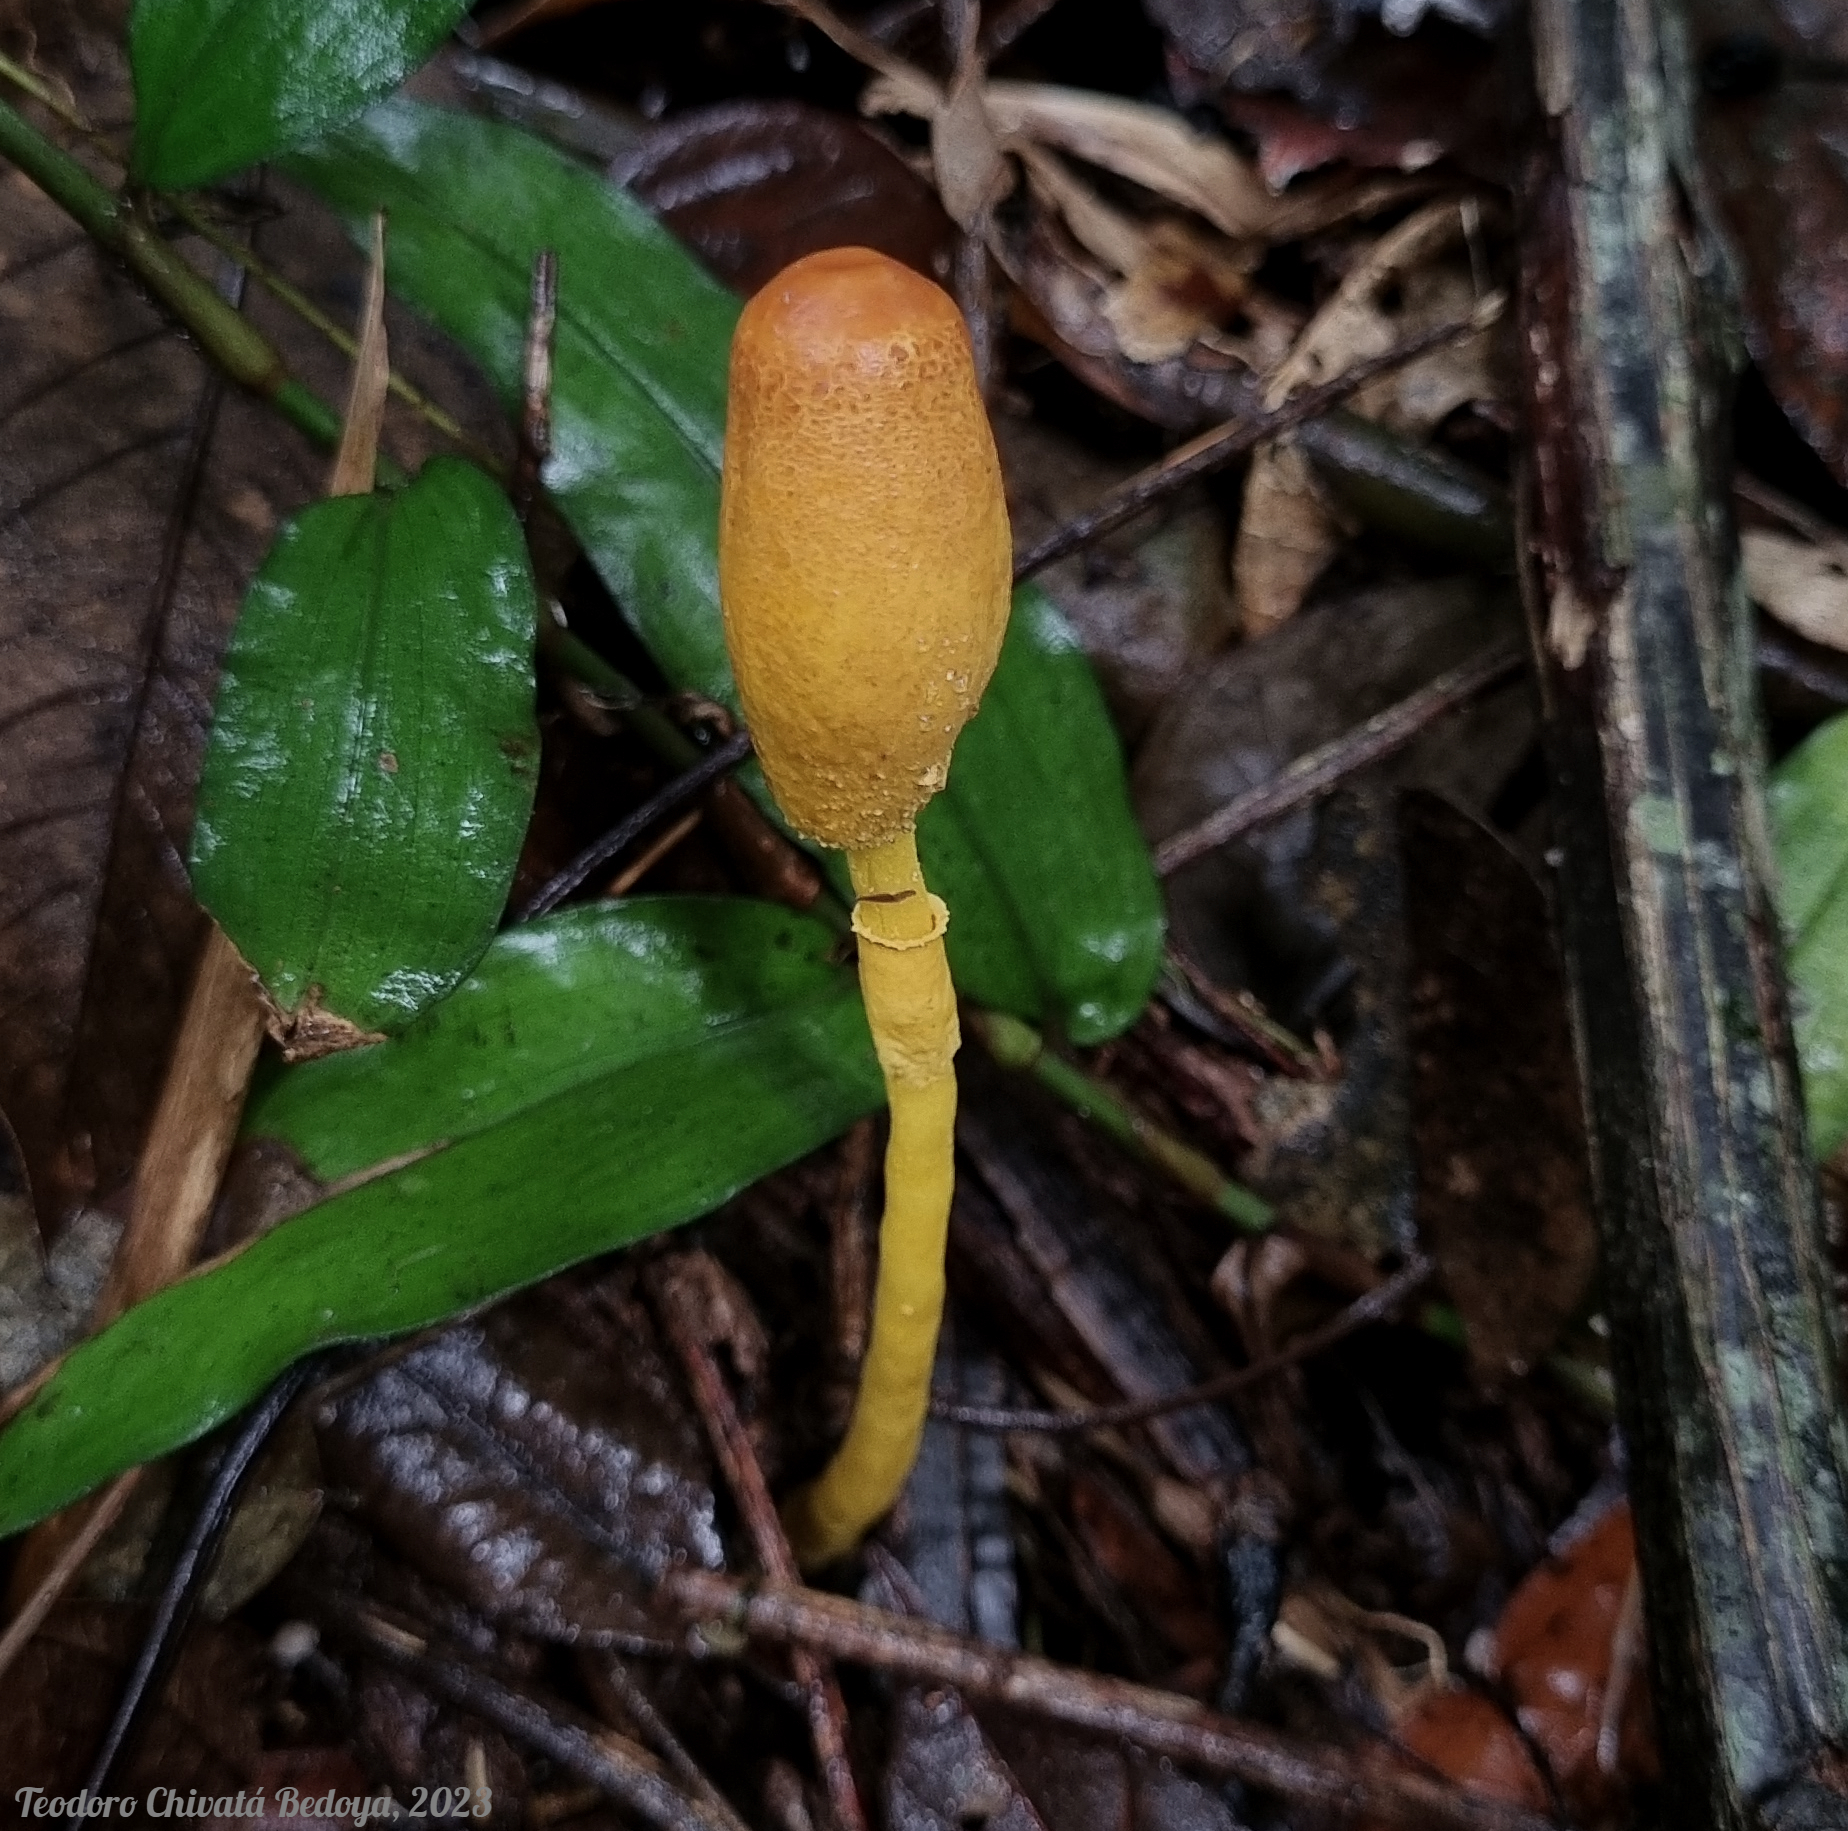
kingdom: Fungi
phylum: Basidiomycota
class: Agaricomycetes
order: Agaricales
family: Agaricaceae
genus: Leucocoprinus
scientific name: Leucocoprinus brunneoluteus
